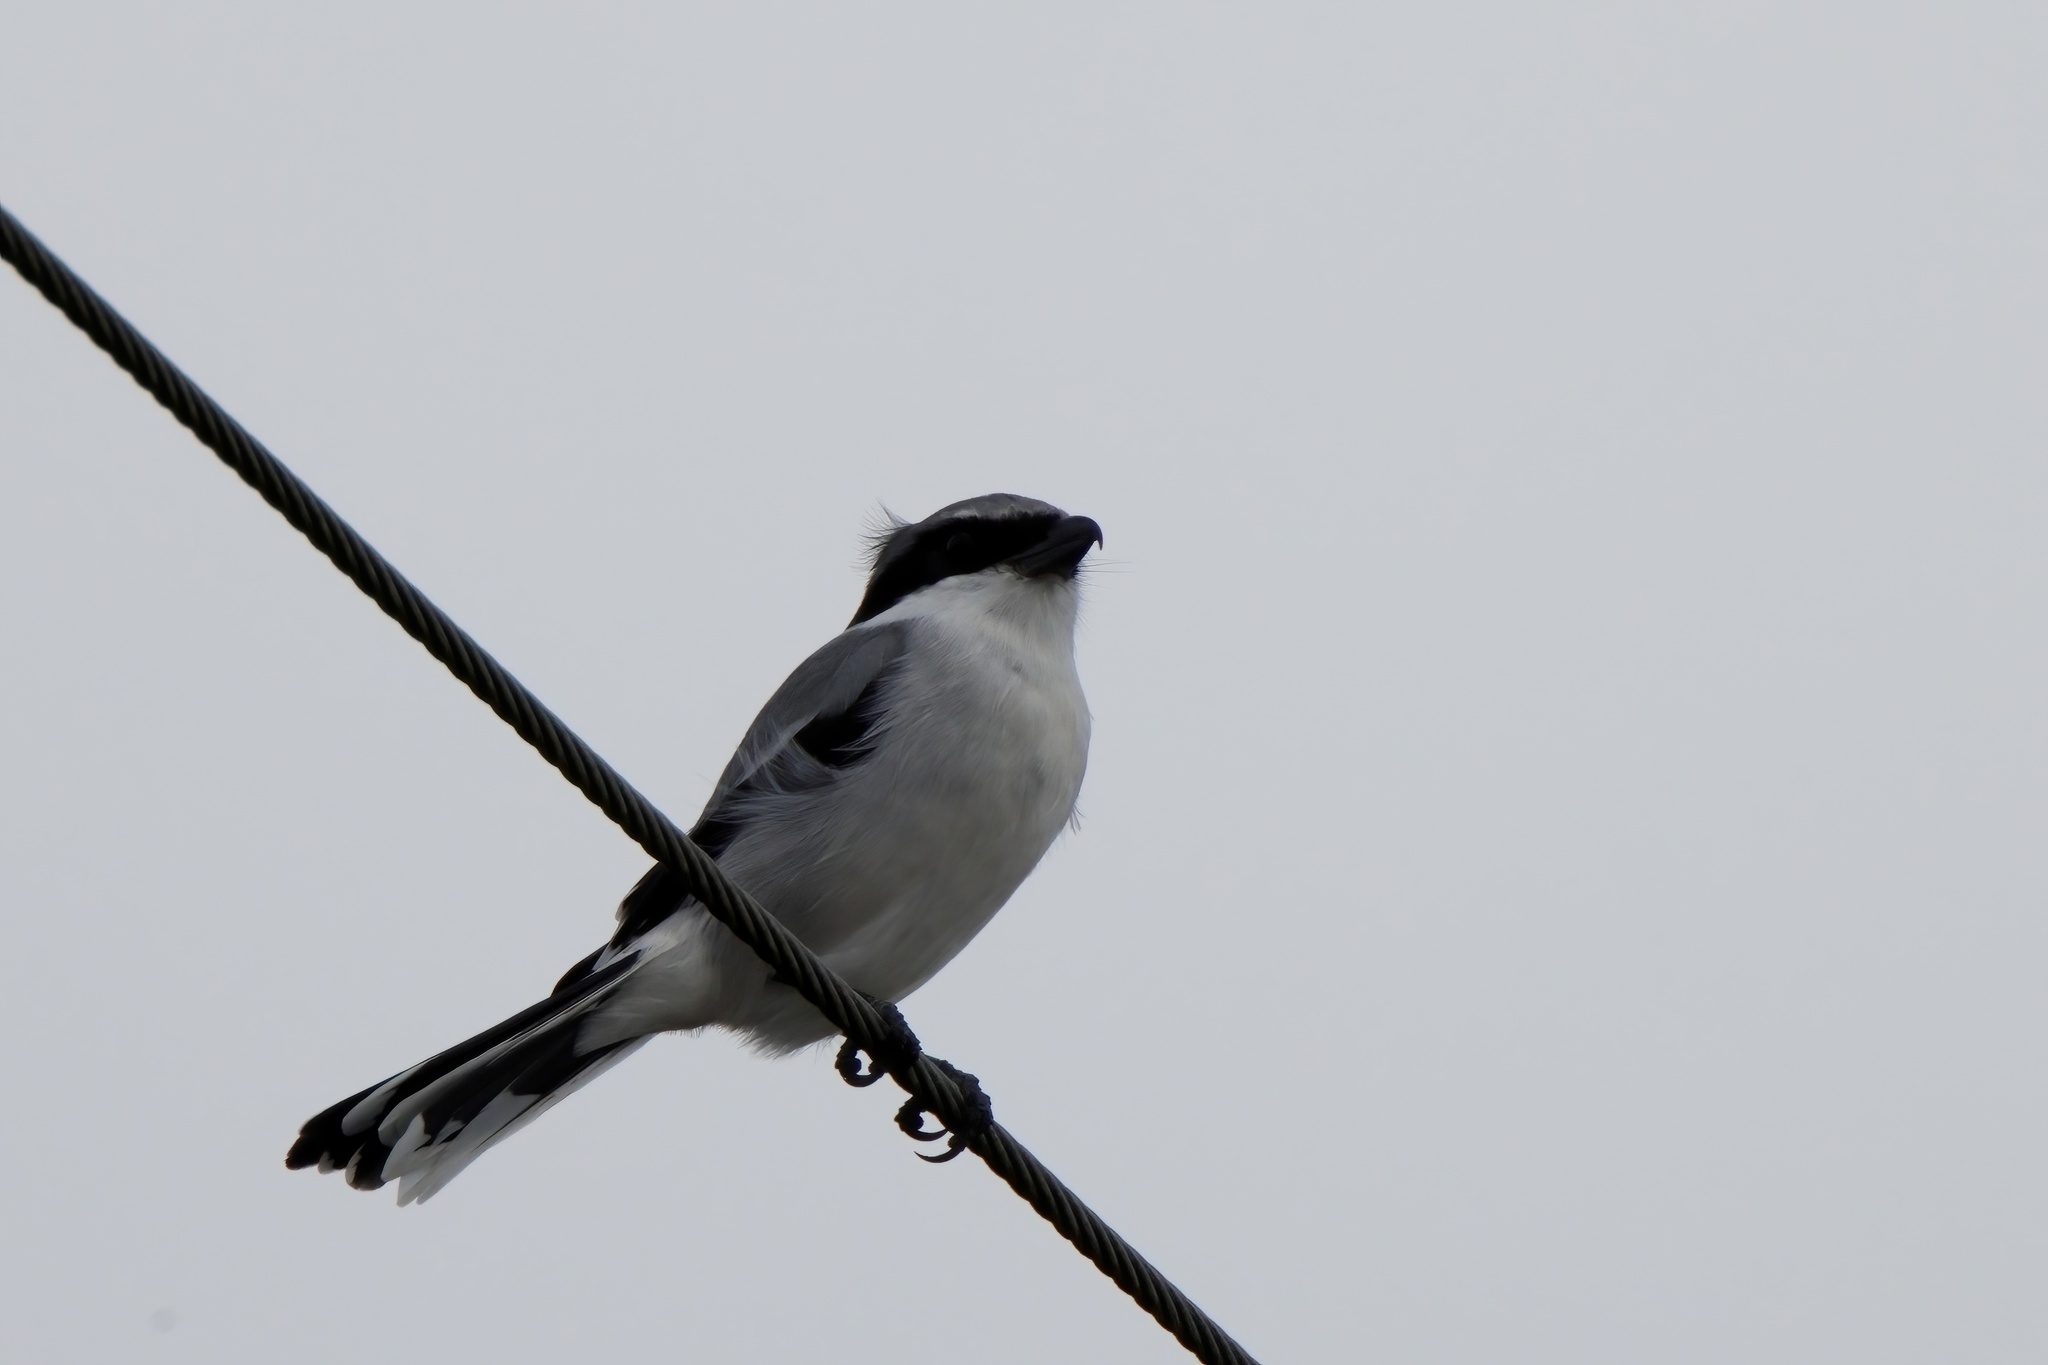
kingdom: Animalia
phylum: Chordata
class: Aves
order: Passeriformes
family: Laniidae
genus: Lanius
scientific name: Lanius ludovicianus
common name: Loggerhead shrike
